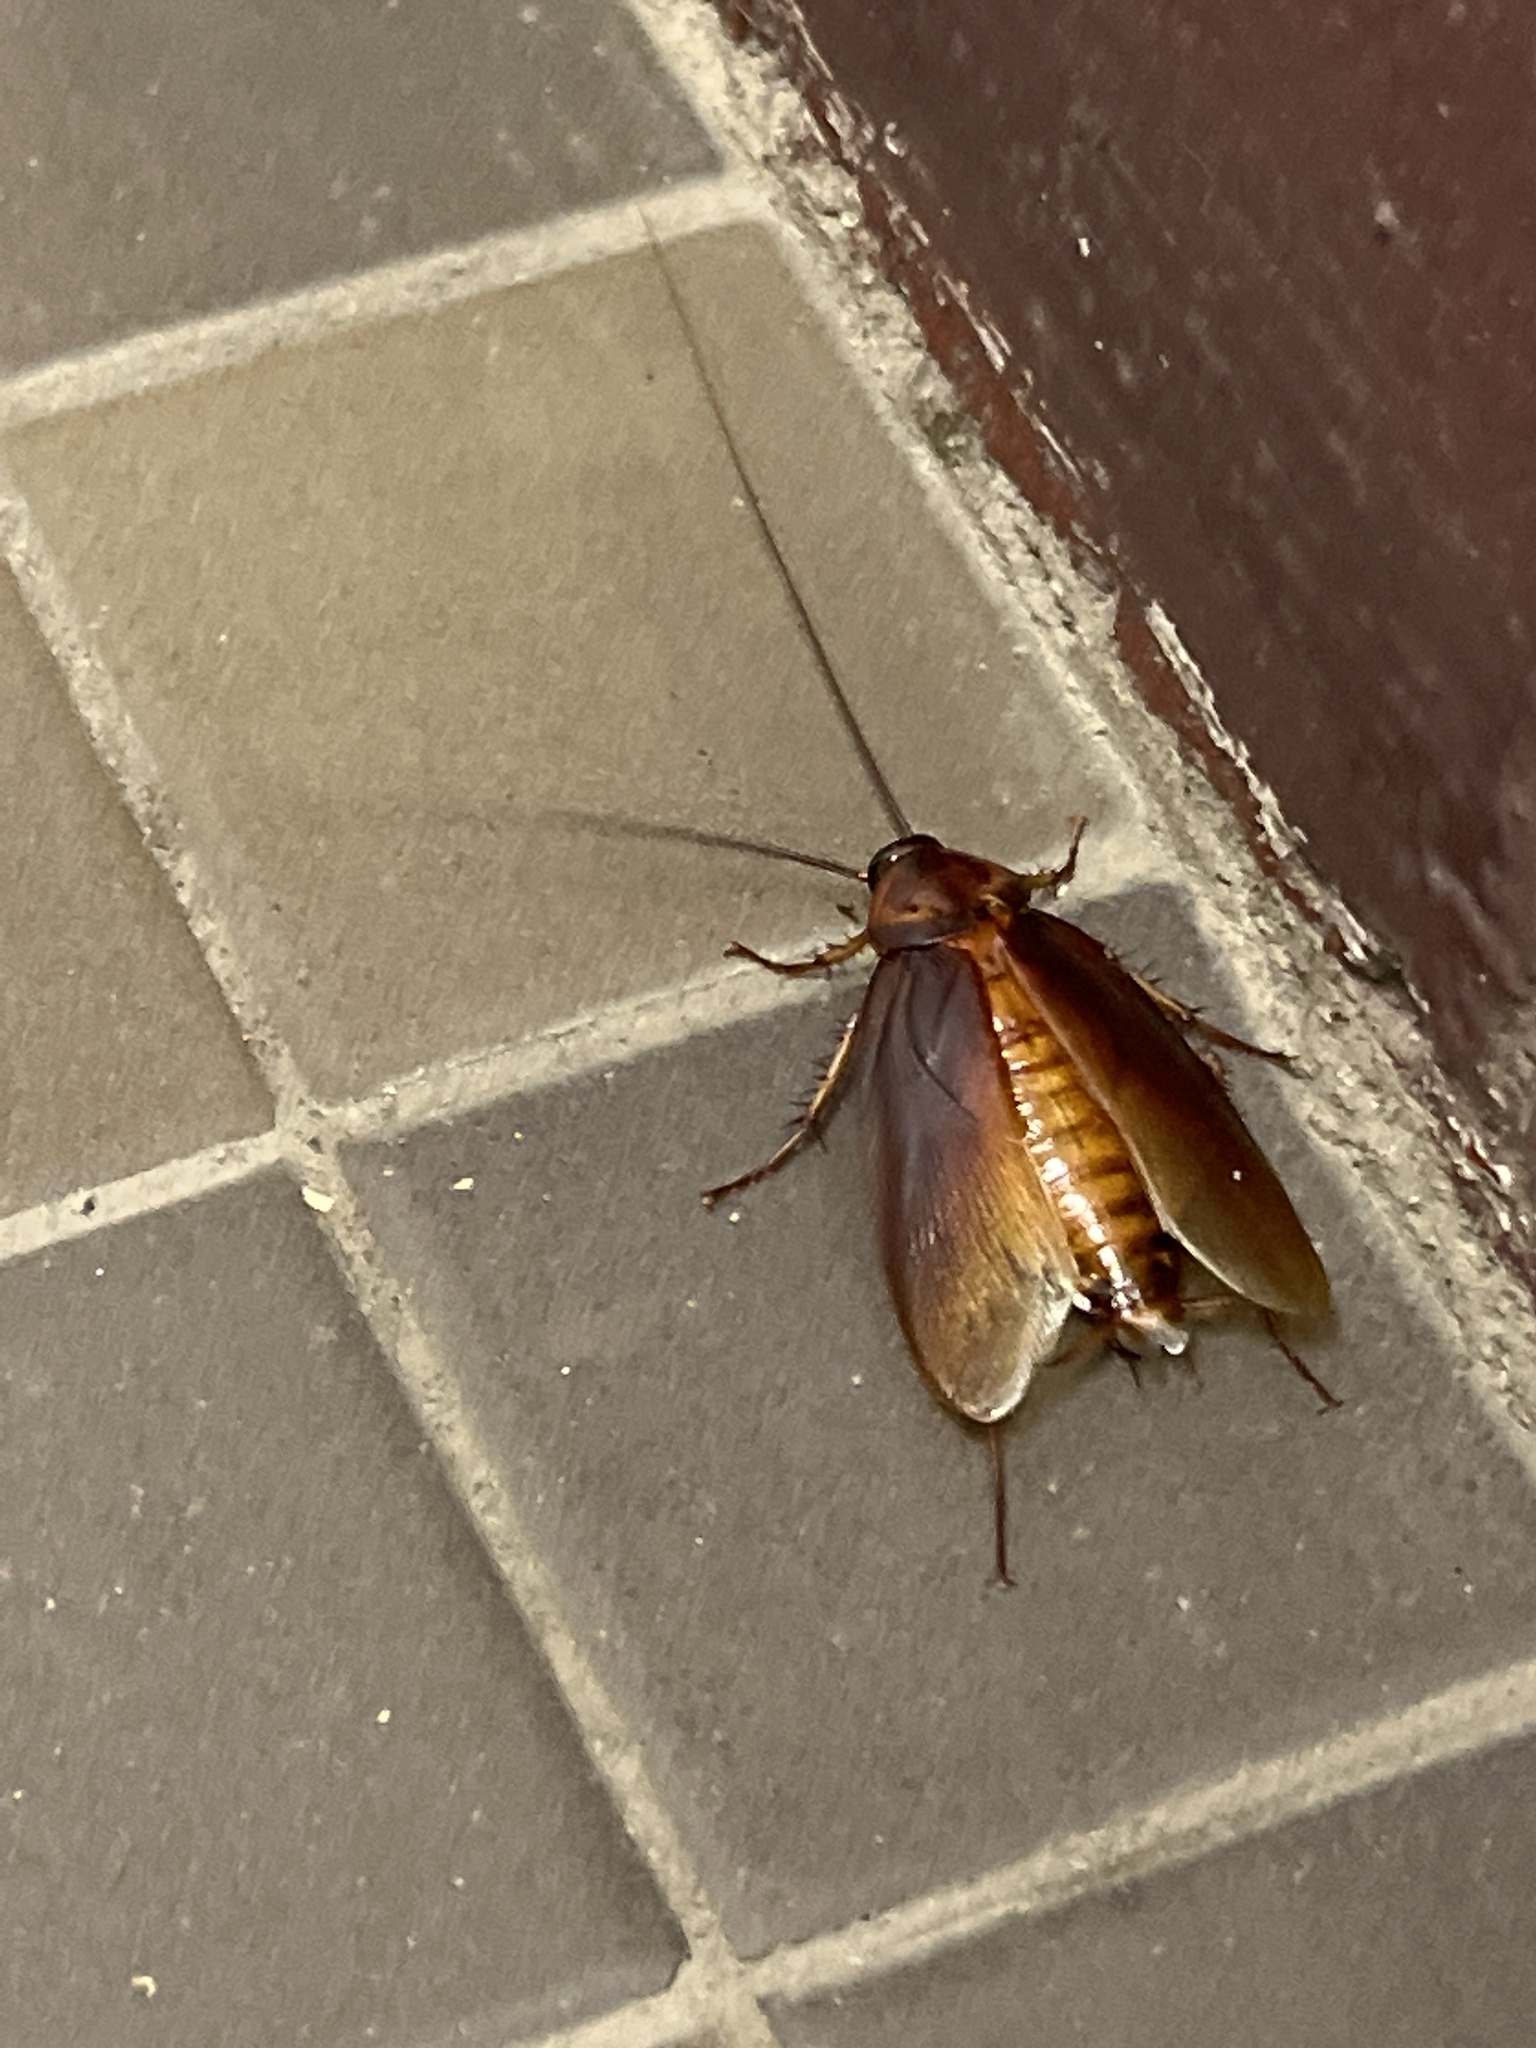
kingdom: Animalia
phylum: Arthropoda
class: Insecta
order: Blattodea
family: Blattidae
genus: Periplaneta
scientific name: Periplaneta americana
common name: American cockroach
